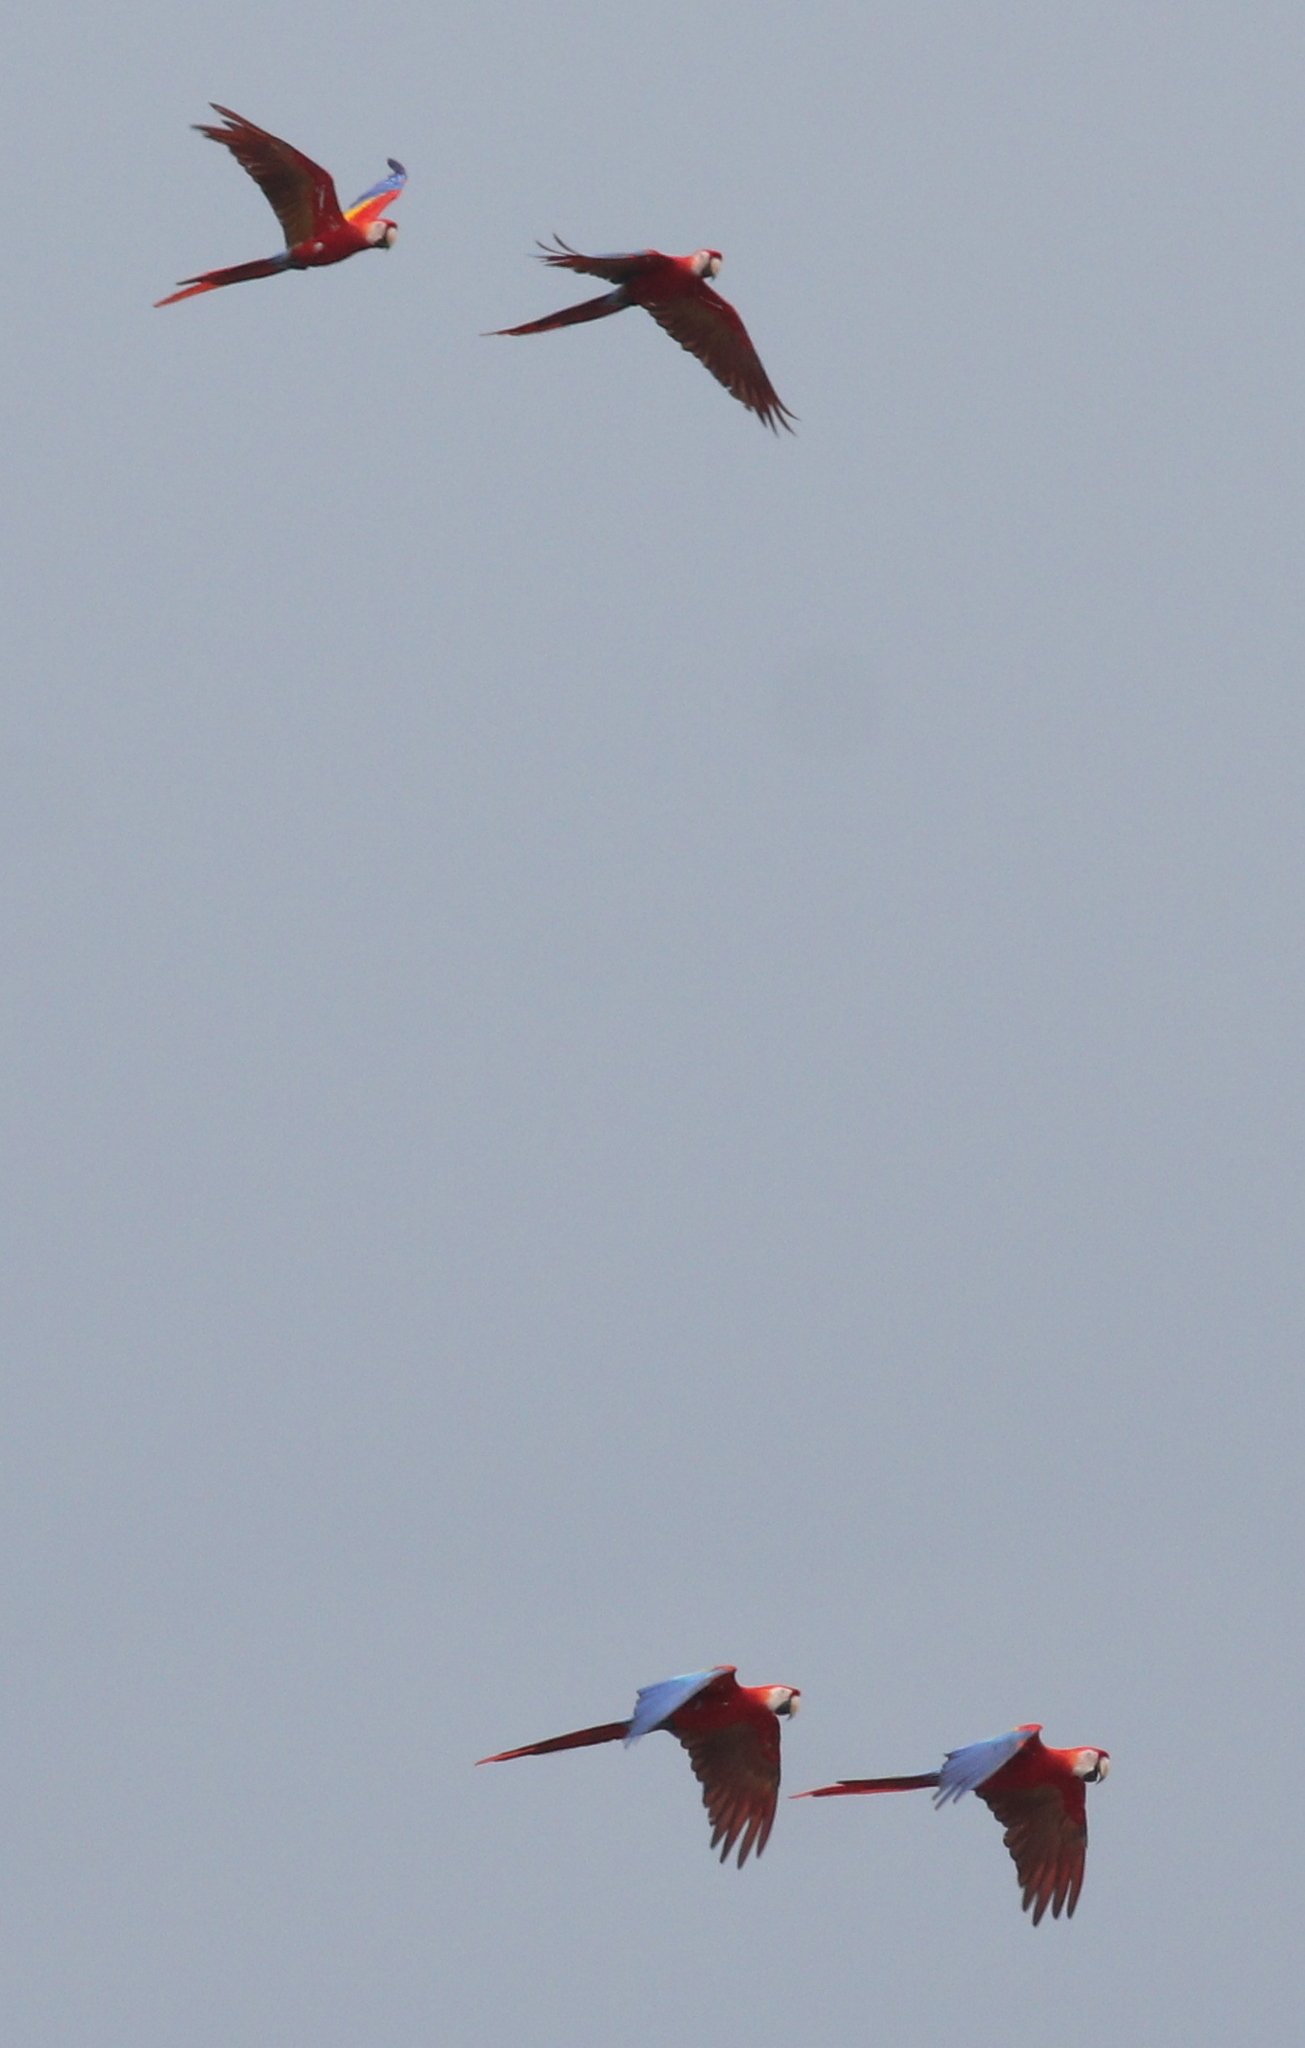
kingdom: Animalia
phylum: Chordata
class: Aves
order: Psittaciformes
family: Psittacidae
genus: Ara
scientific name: Ara macao
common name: Scarlet macaw
